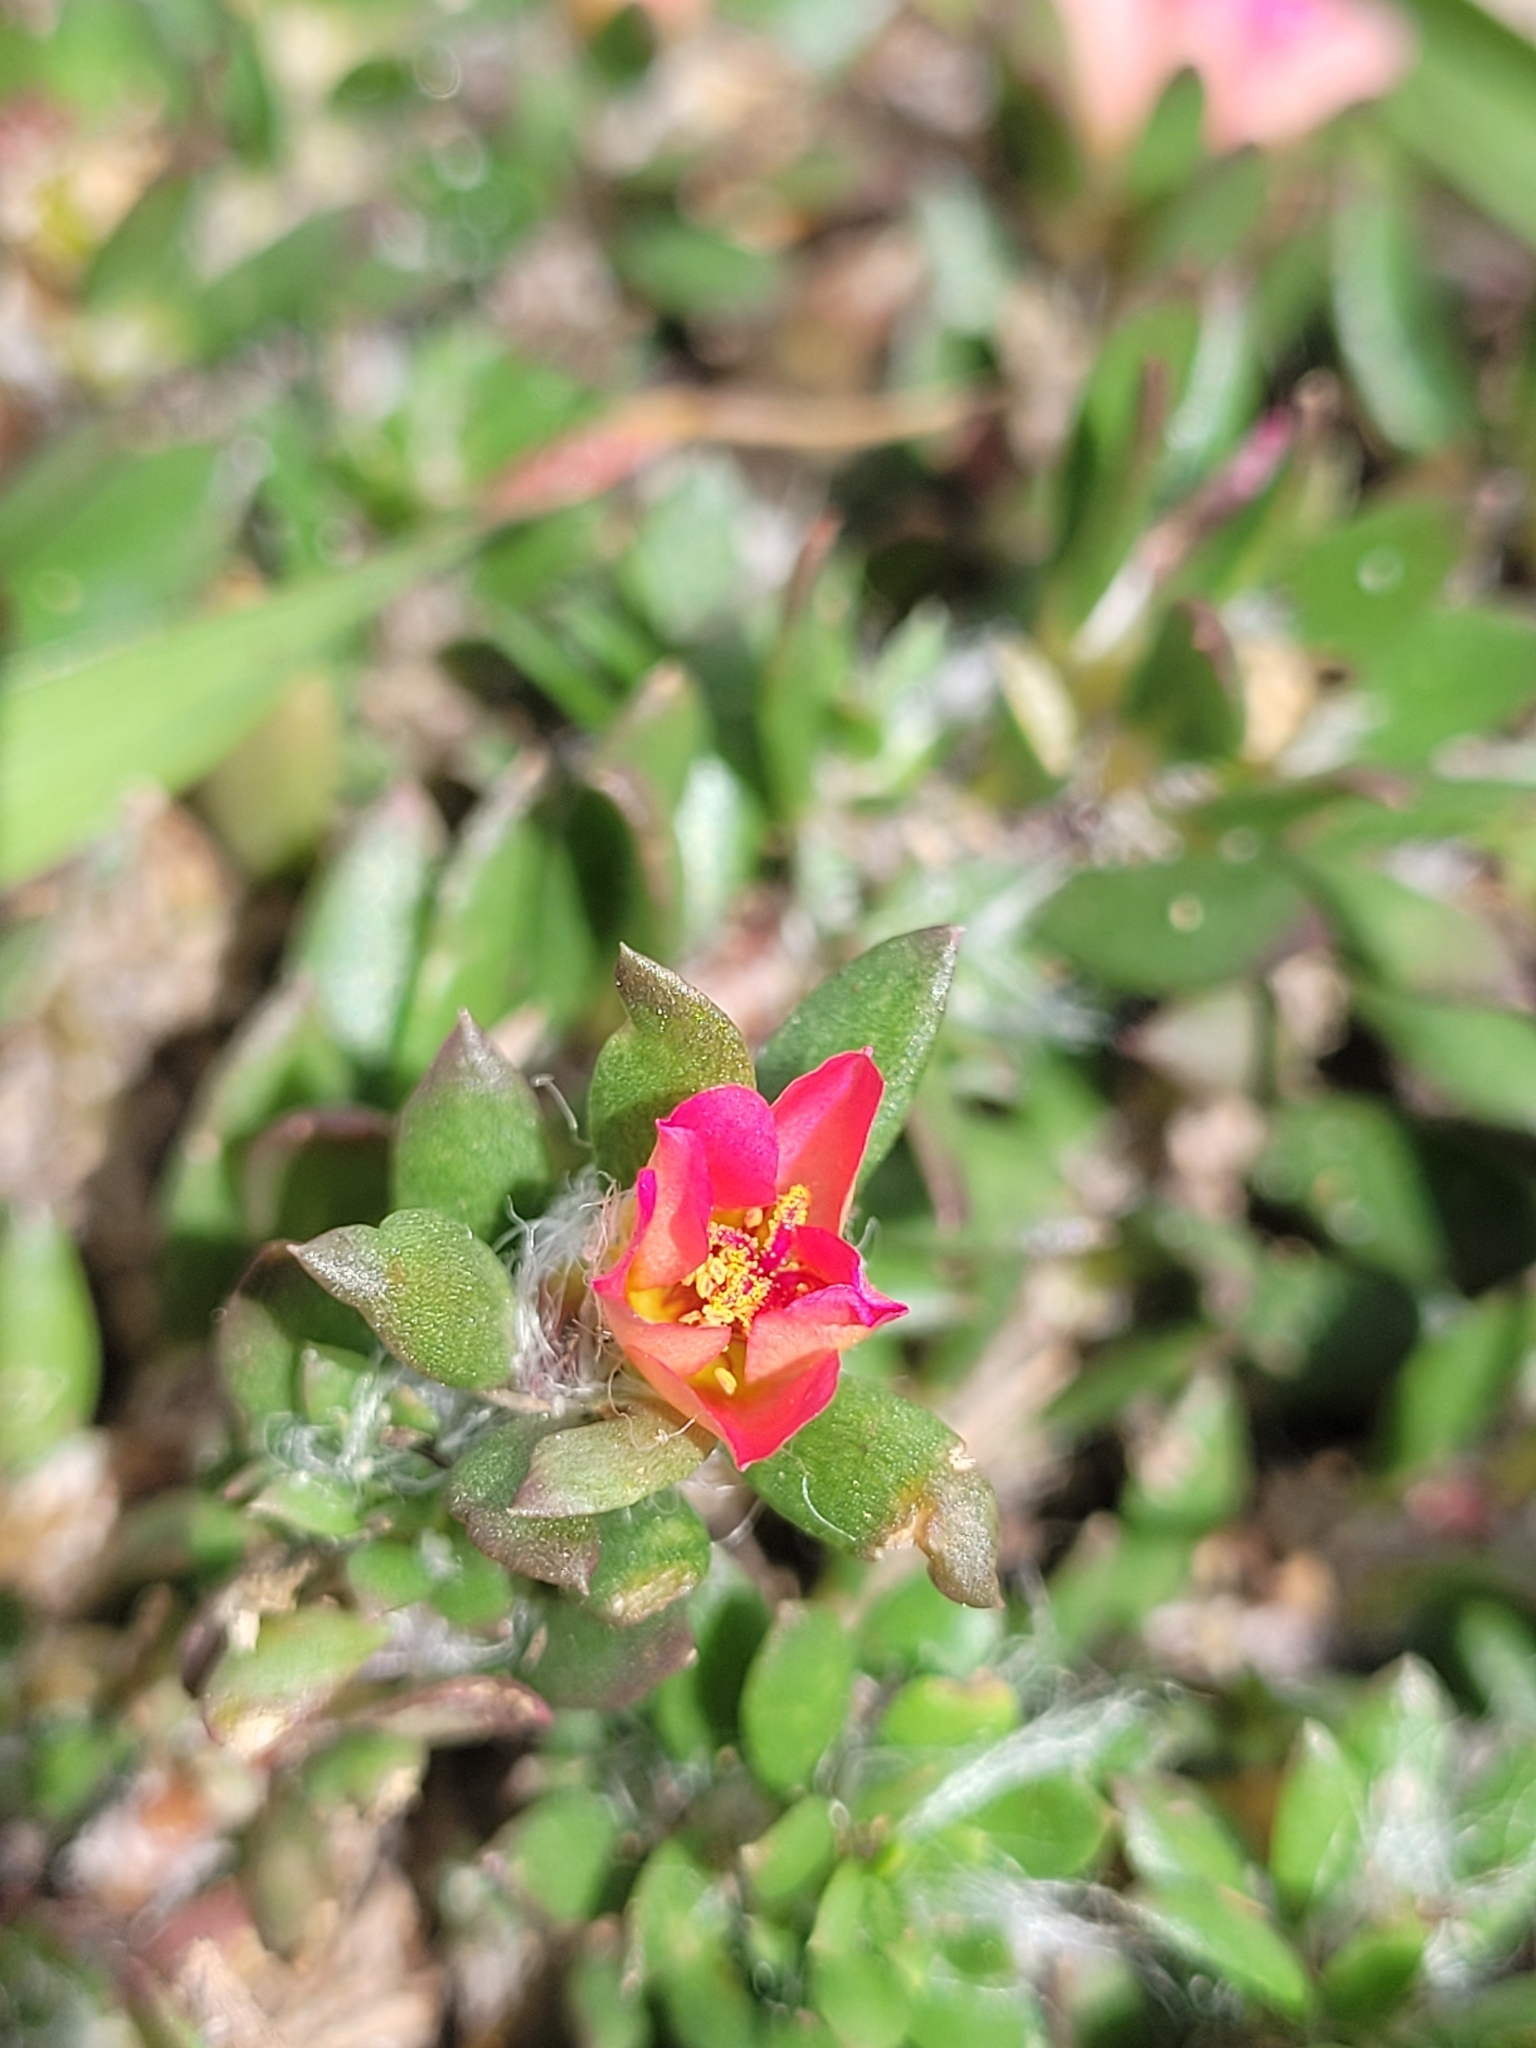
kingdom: Plantae
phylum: Tracheophyta
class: Magnoliopsida
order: Caryophyllales
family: Portulacaceae
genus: Portulaca
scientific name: Portulaca amilis
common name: Paraguayan purslane
